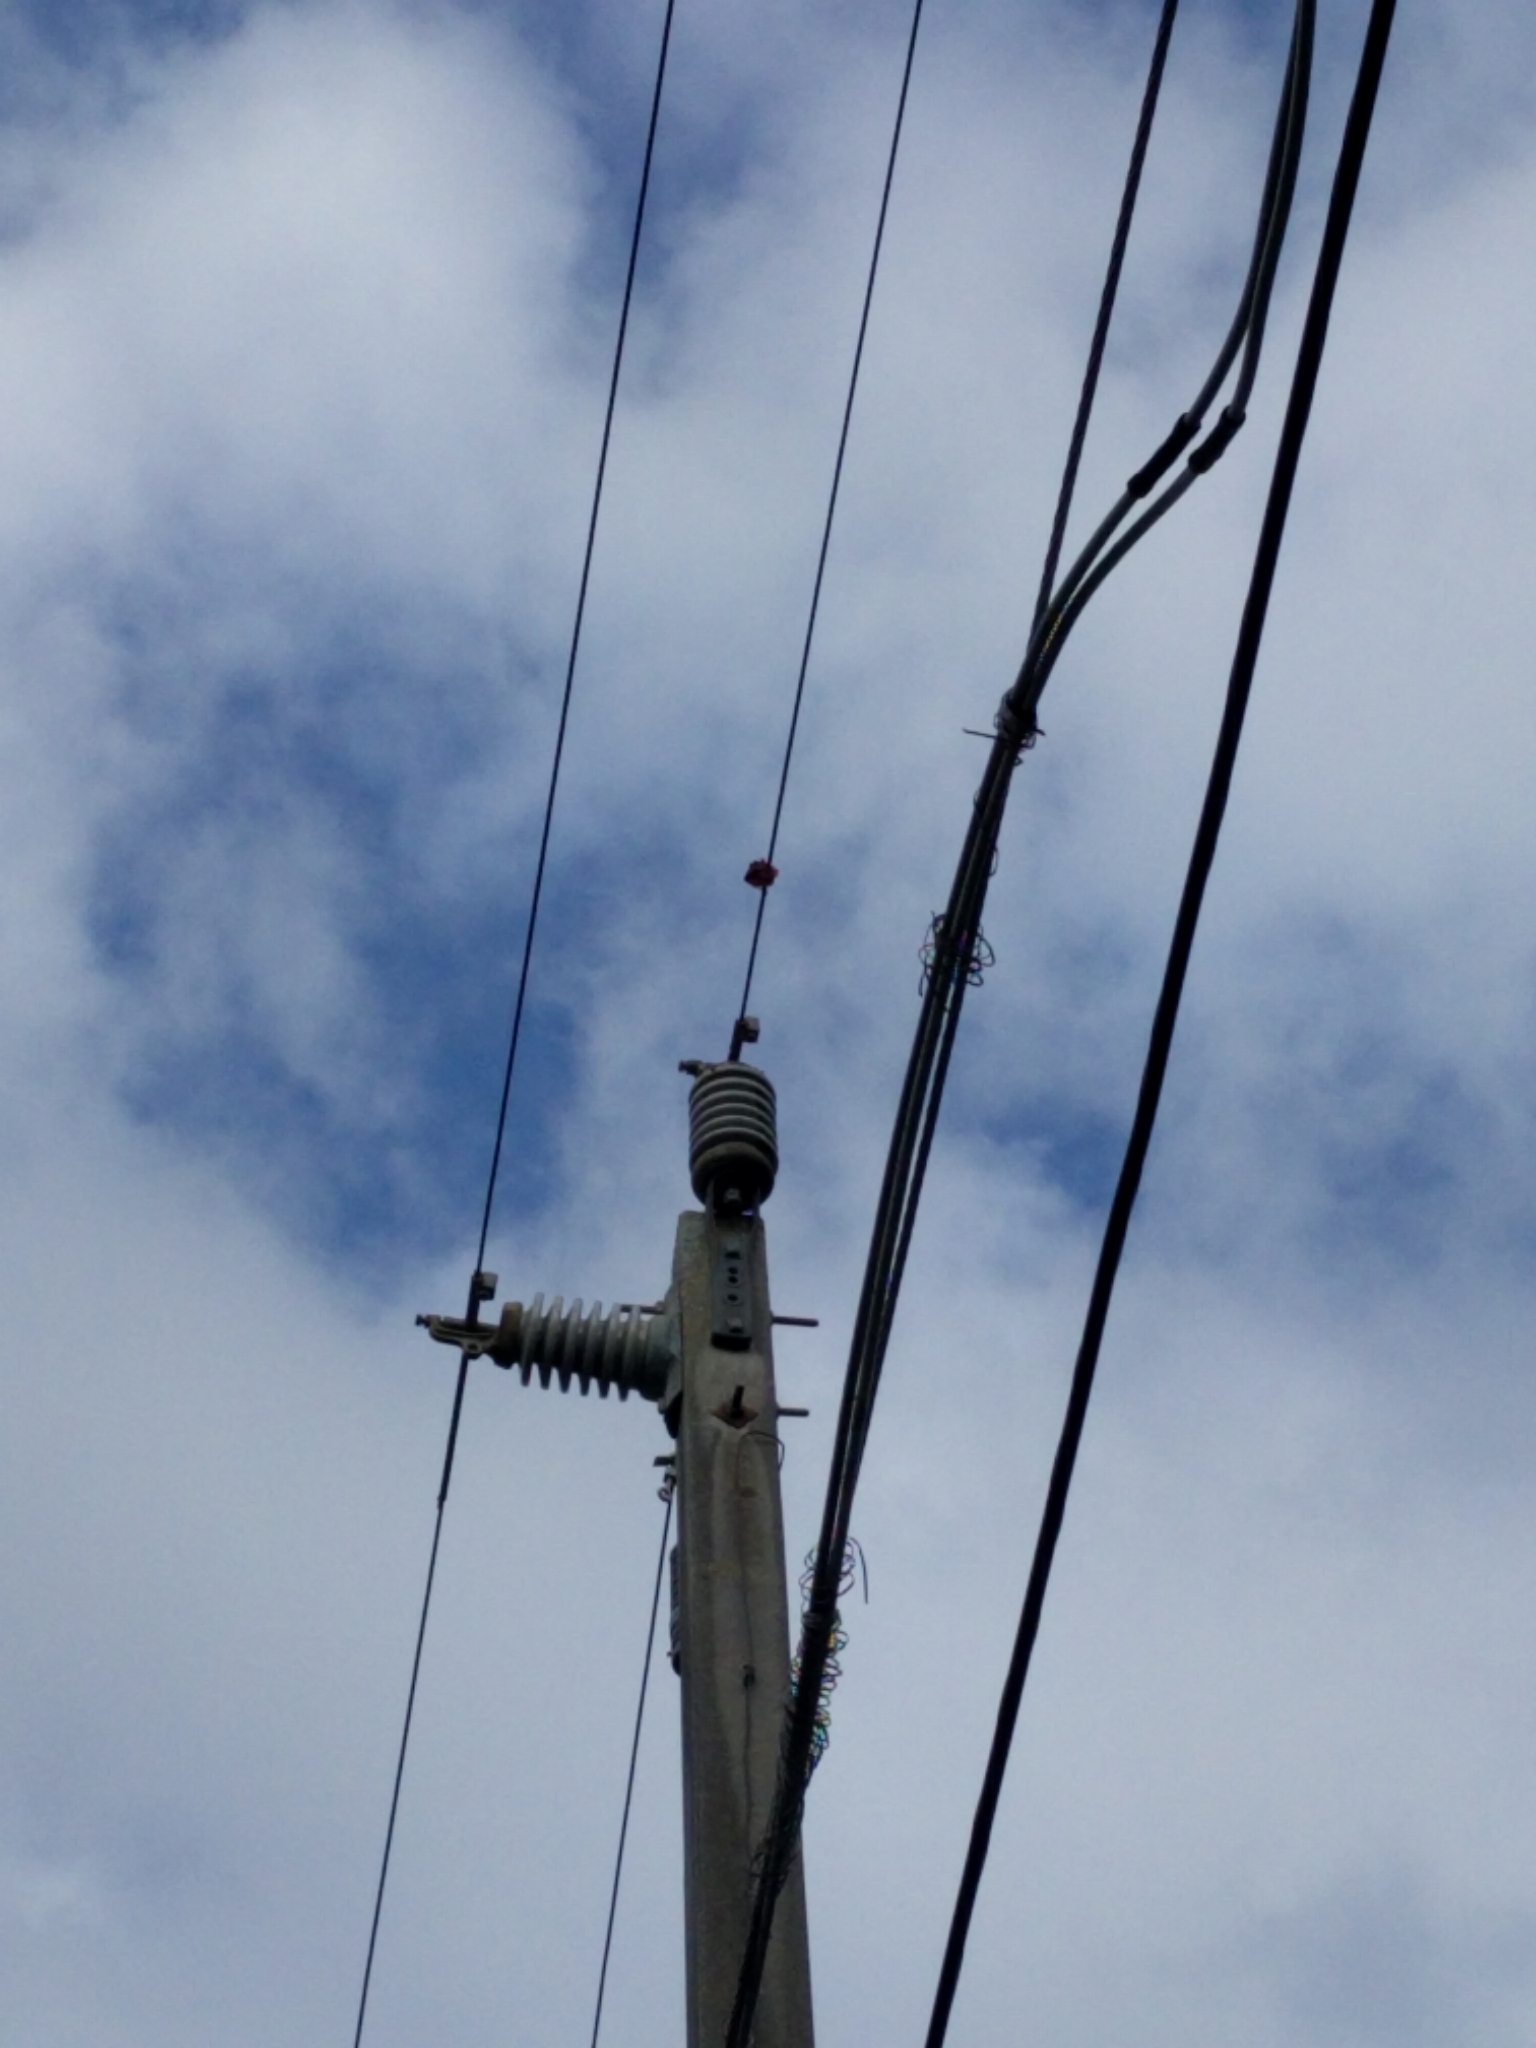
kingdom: Animalia
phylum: Chordata
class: Aves
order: Passeriformes
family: Cardinalidae
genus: Cardinalis
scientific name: Cardinalis cardinalis
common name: Northern cardinal
